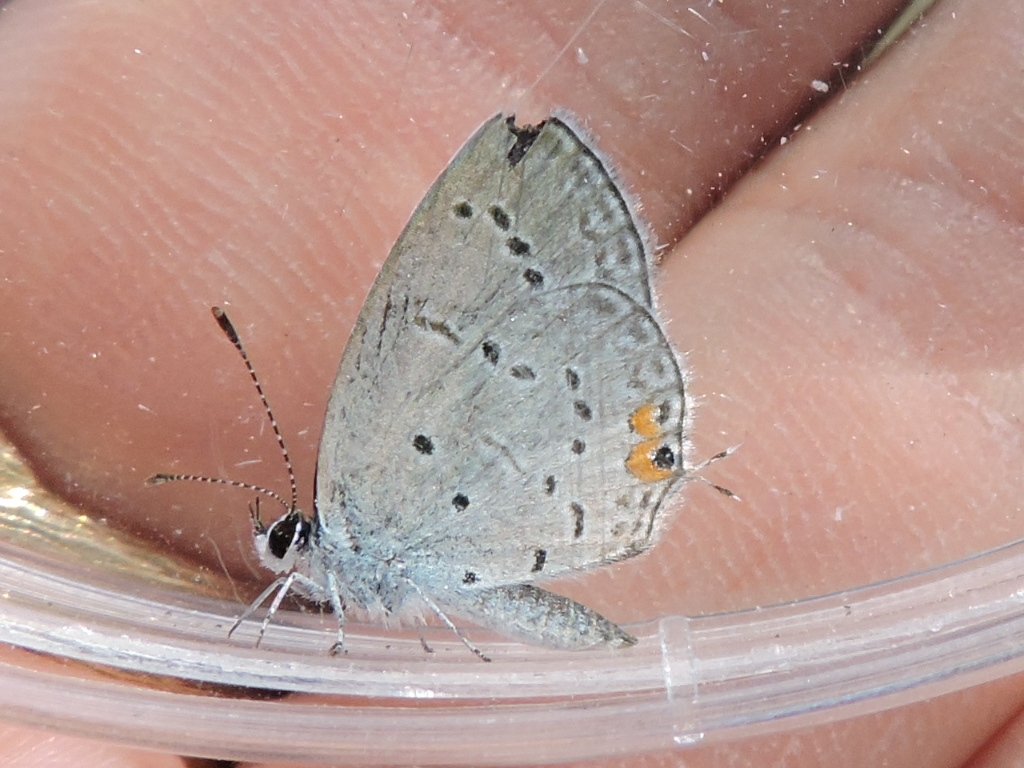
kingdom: Animalia
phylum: Arthropoda
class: Insecta
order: Lepidoptera
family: Lycaenidae
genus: Elkalyce
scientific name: Elkalyce comyntas
